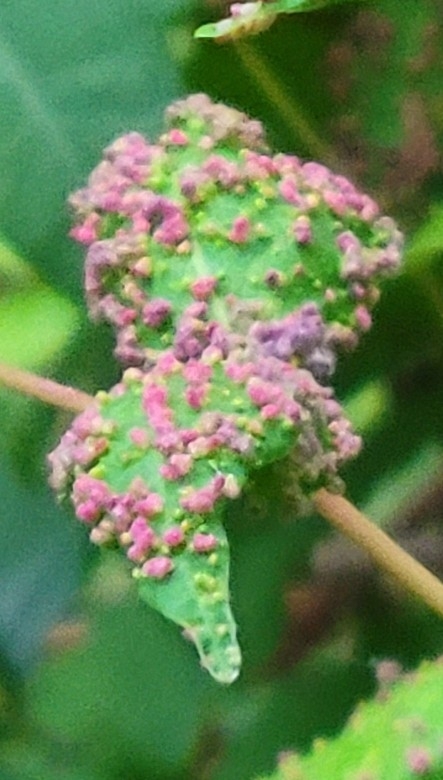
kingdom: Animalia
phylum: Arthropoda
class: Arachnida
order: Trombidiformes
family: Eriophyidae
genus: Aculops
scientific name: Aculops
